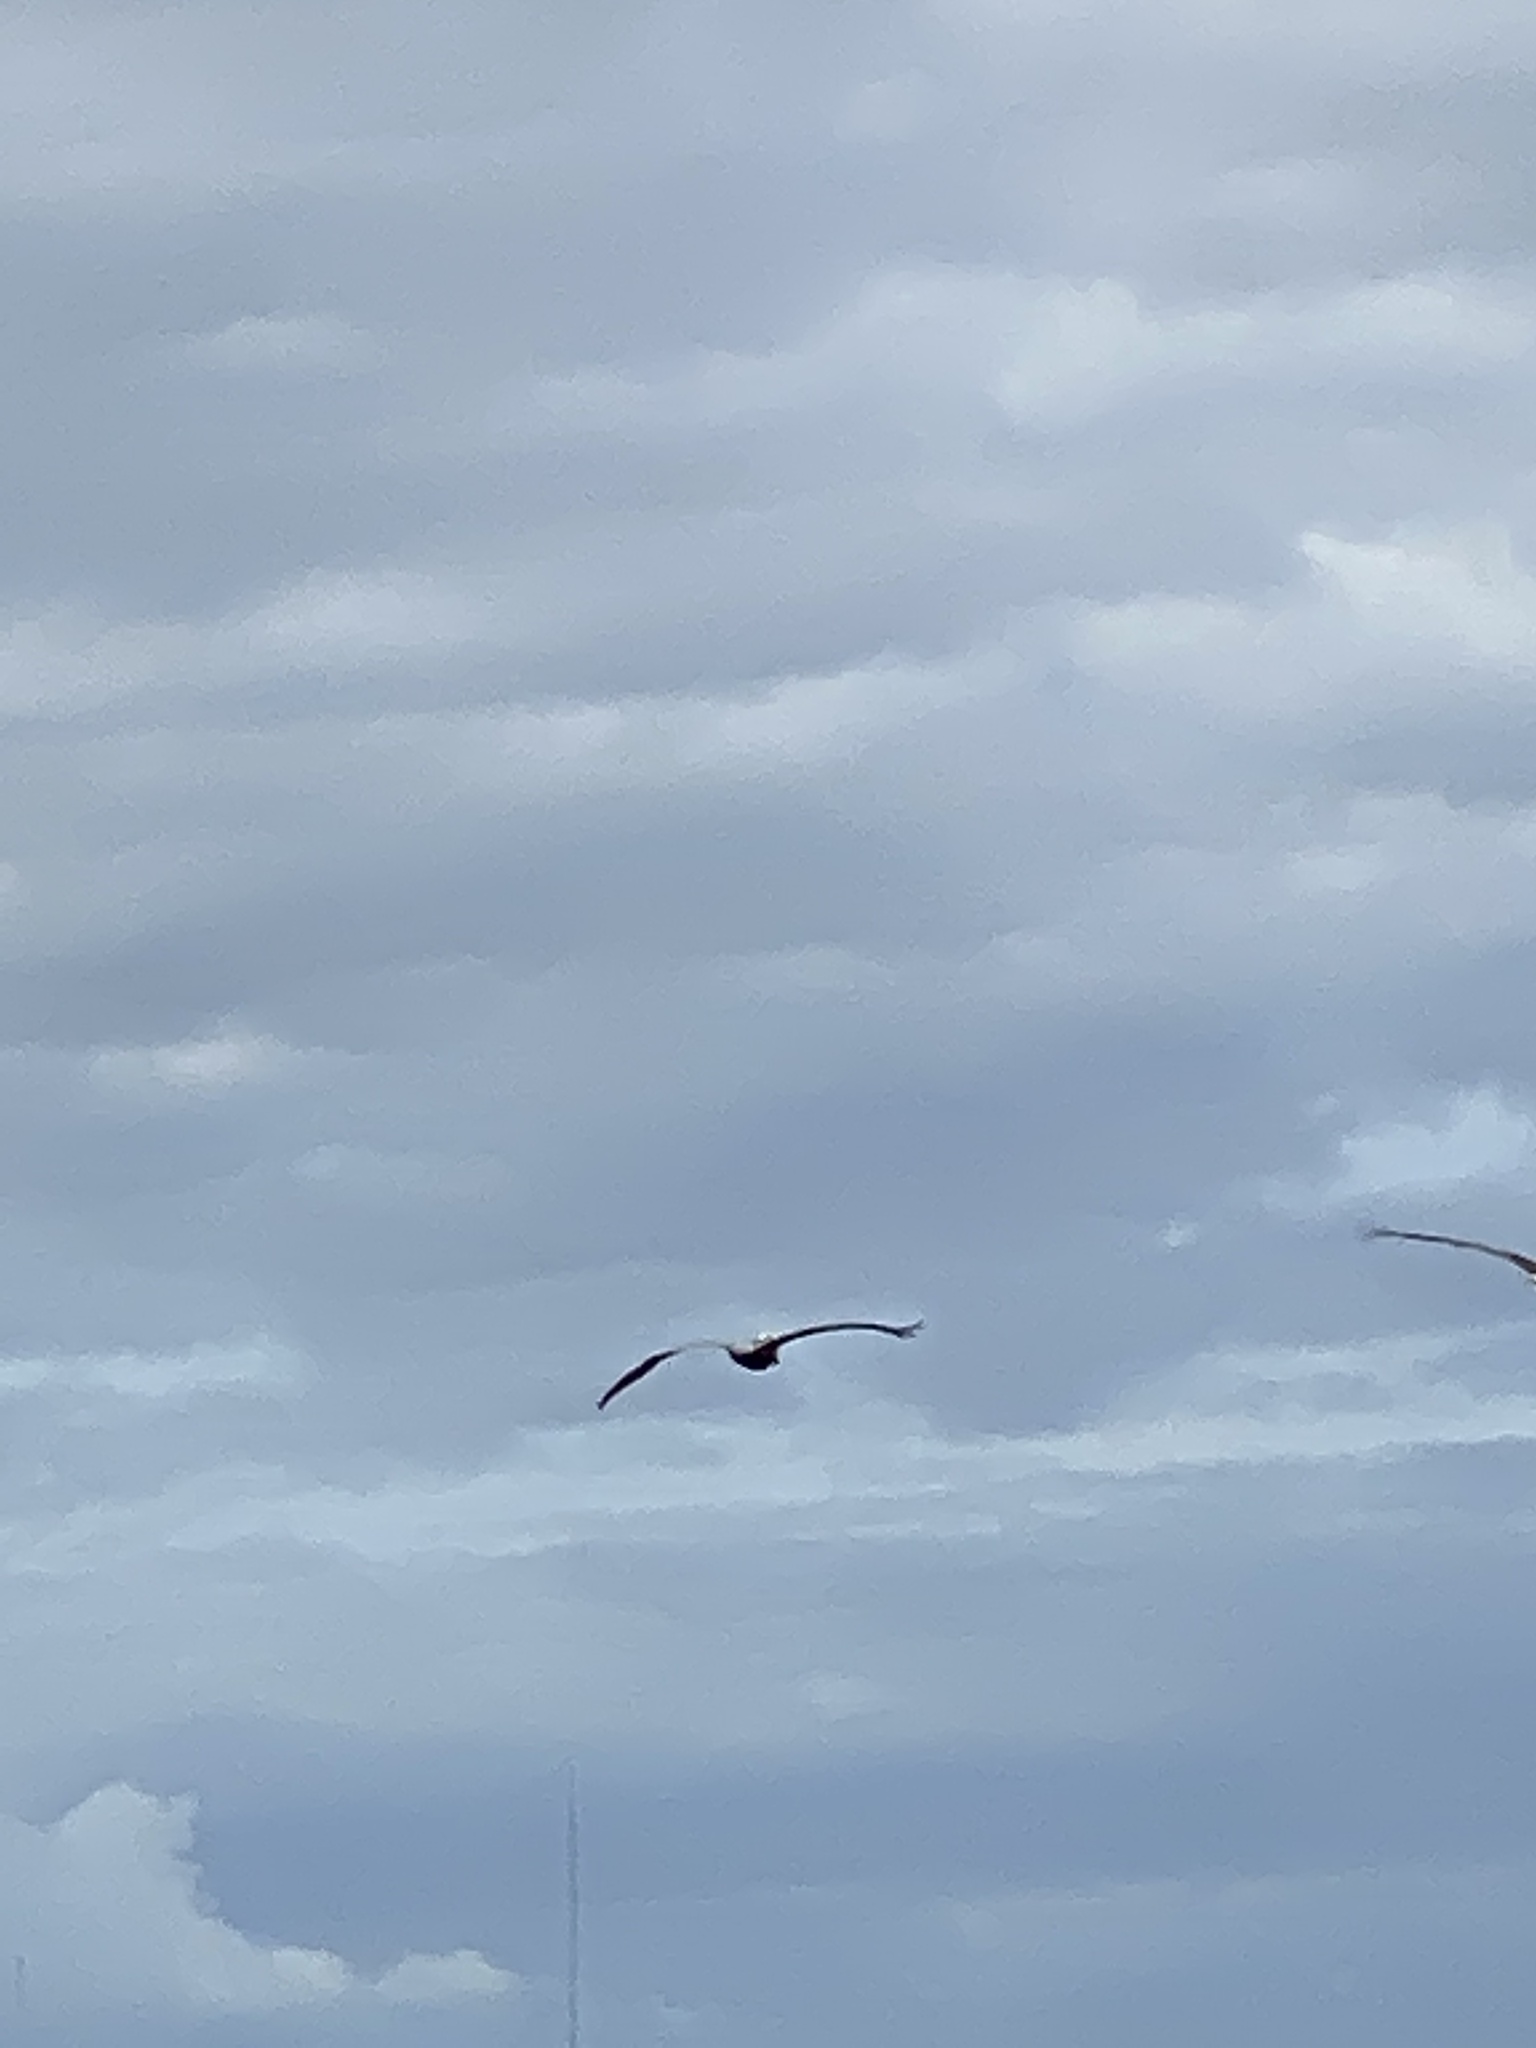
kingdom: Animalia
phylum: Chordata
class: Aves
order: Pelecaniformes
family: Pelecanidae
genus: Pelecanus
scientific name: Pelecanus occidentalis
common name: Brown pelican
